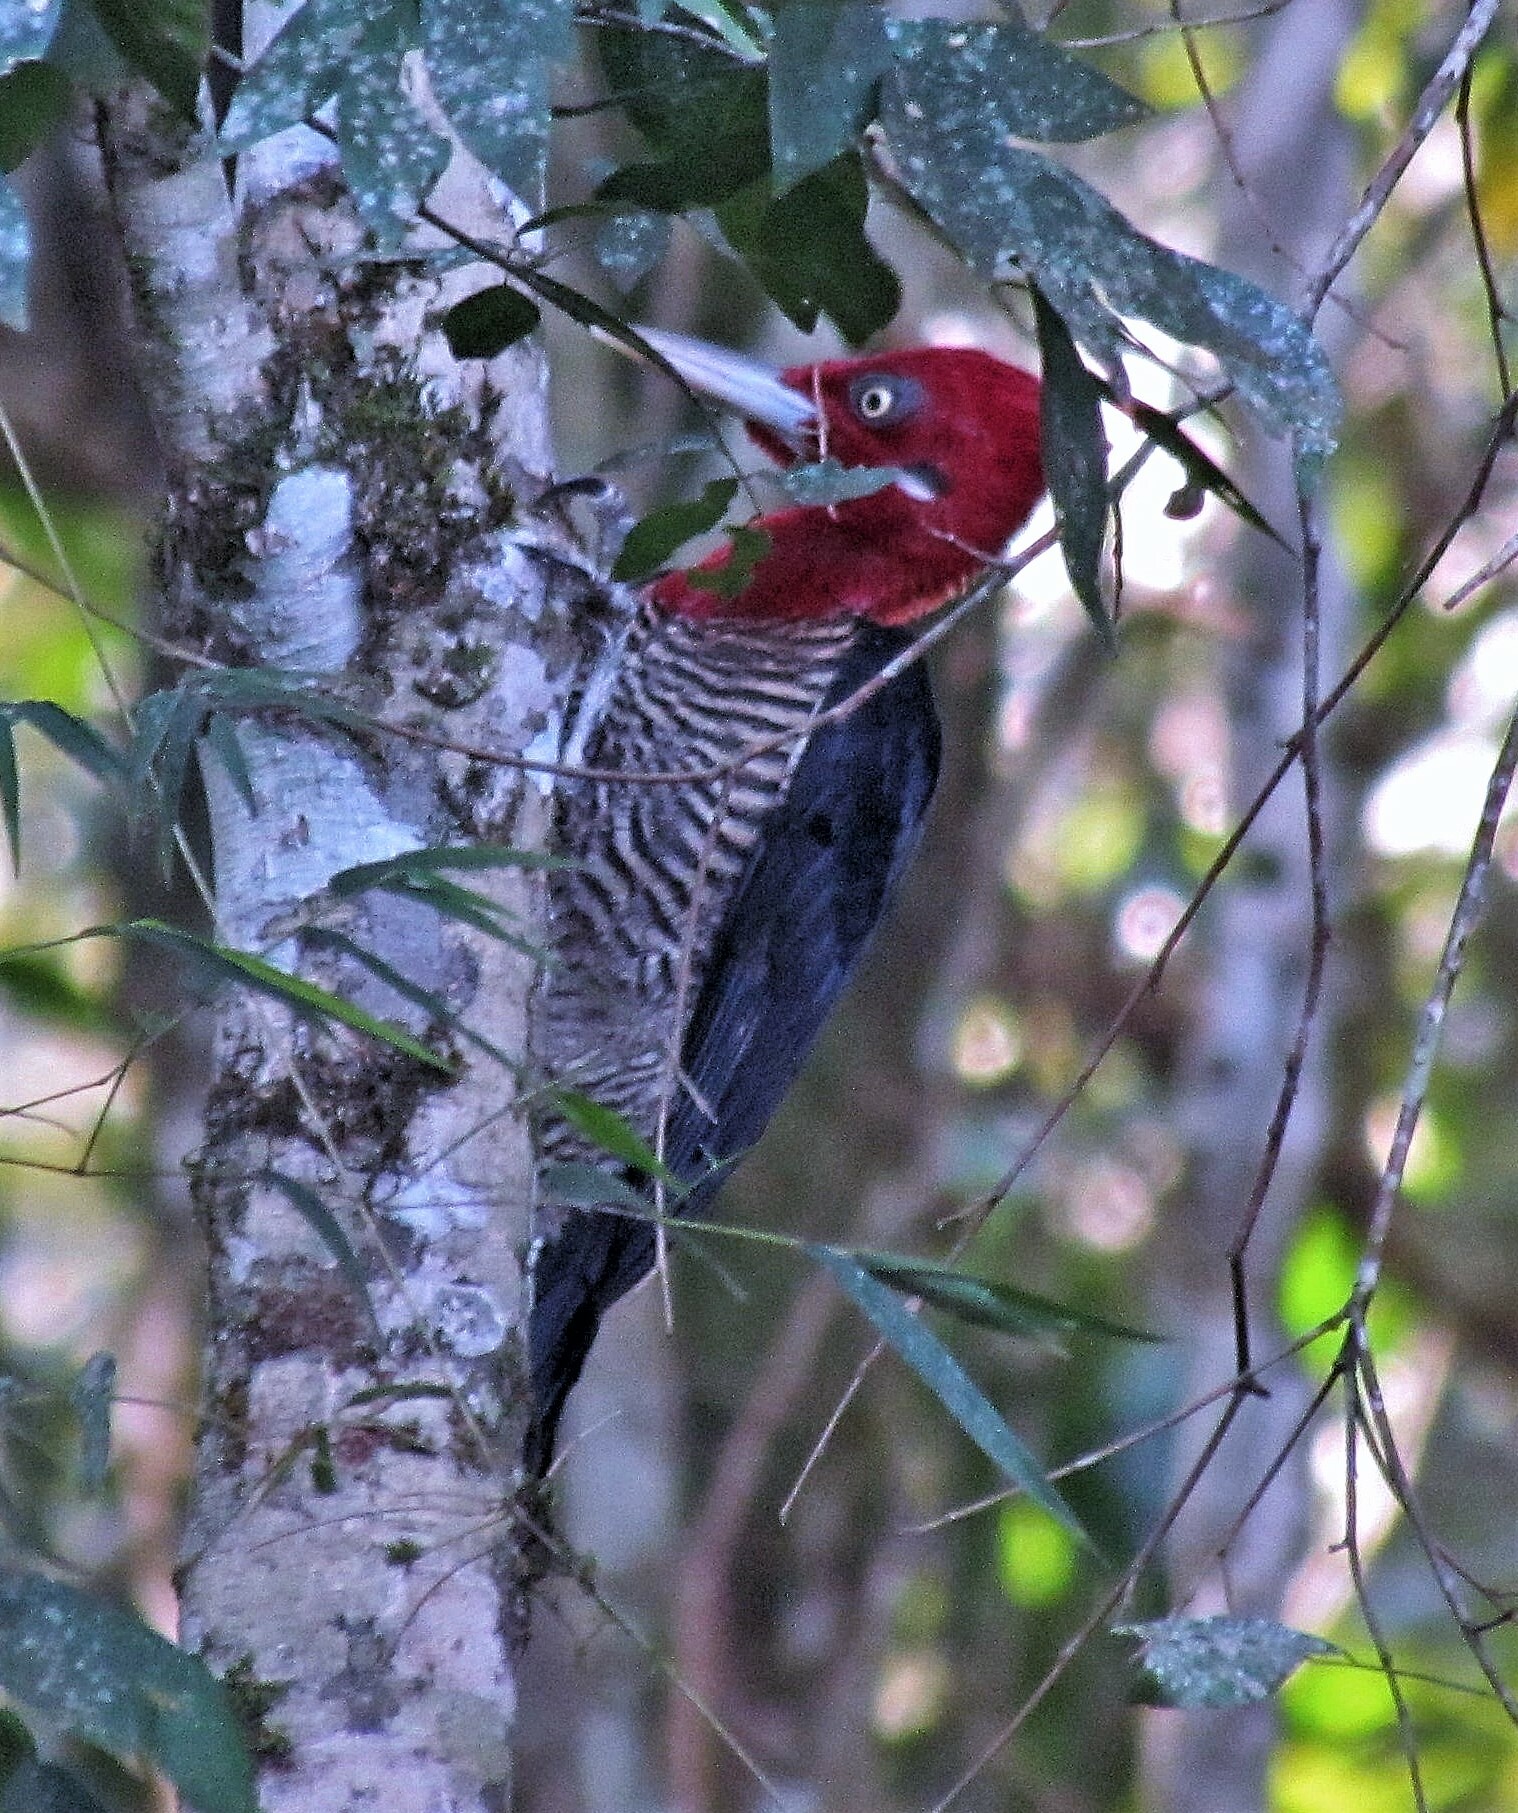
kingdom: Animalia
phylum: Chordata
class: Aves
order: Piciformes
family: Picidae
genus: Campephilus
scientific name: Campephilus robustus
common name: Robust woodpecker
